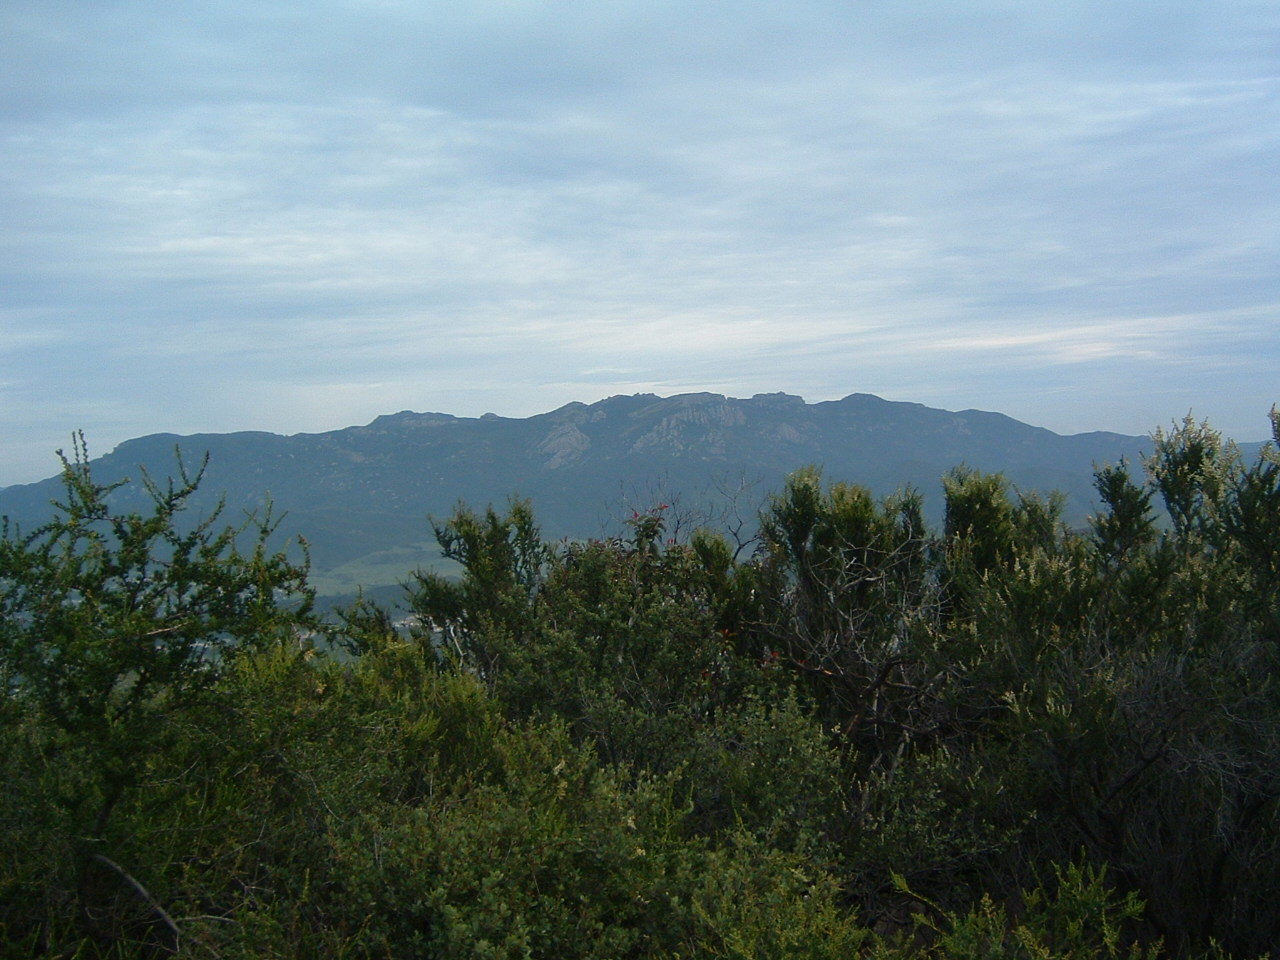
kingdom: Plantae
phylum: Tracheophyta
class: Magnoliopsida
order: Rosales
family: Rosaceae
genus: Adenostoma
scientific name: Adenostoma fasciculatum
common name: Chamise
